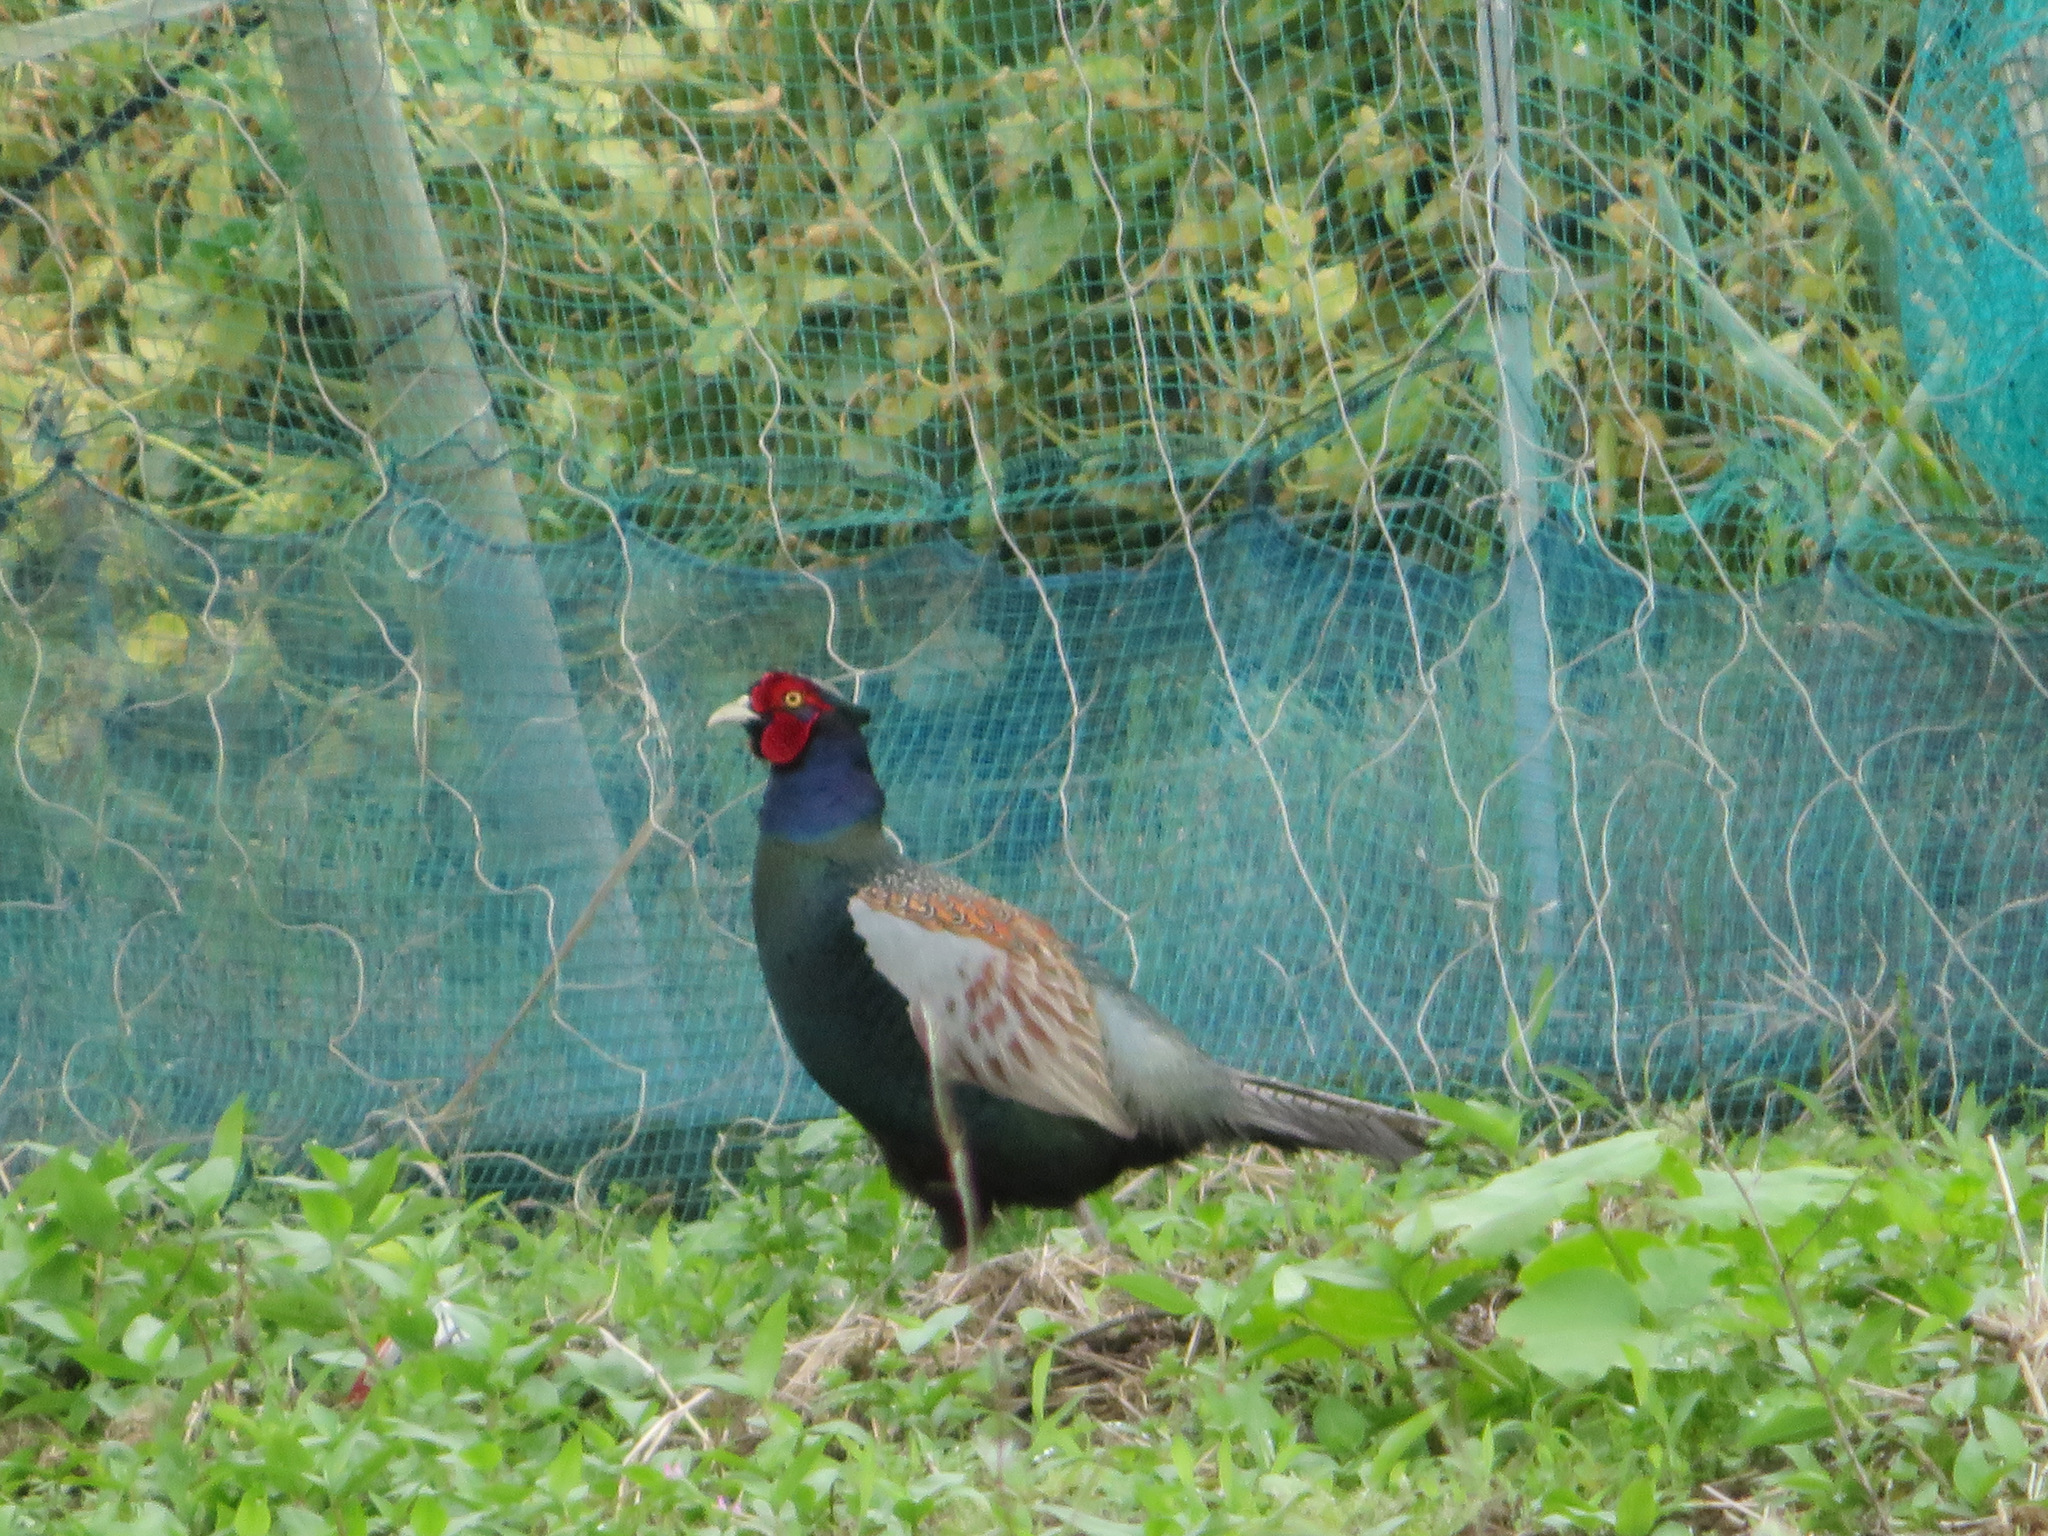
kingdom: Animalia
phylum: Chordata
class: Aves
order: Galliformes
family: Phasianidae
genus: Phasianus
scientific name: Phasianus versicolor
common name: Green pheasant
